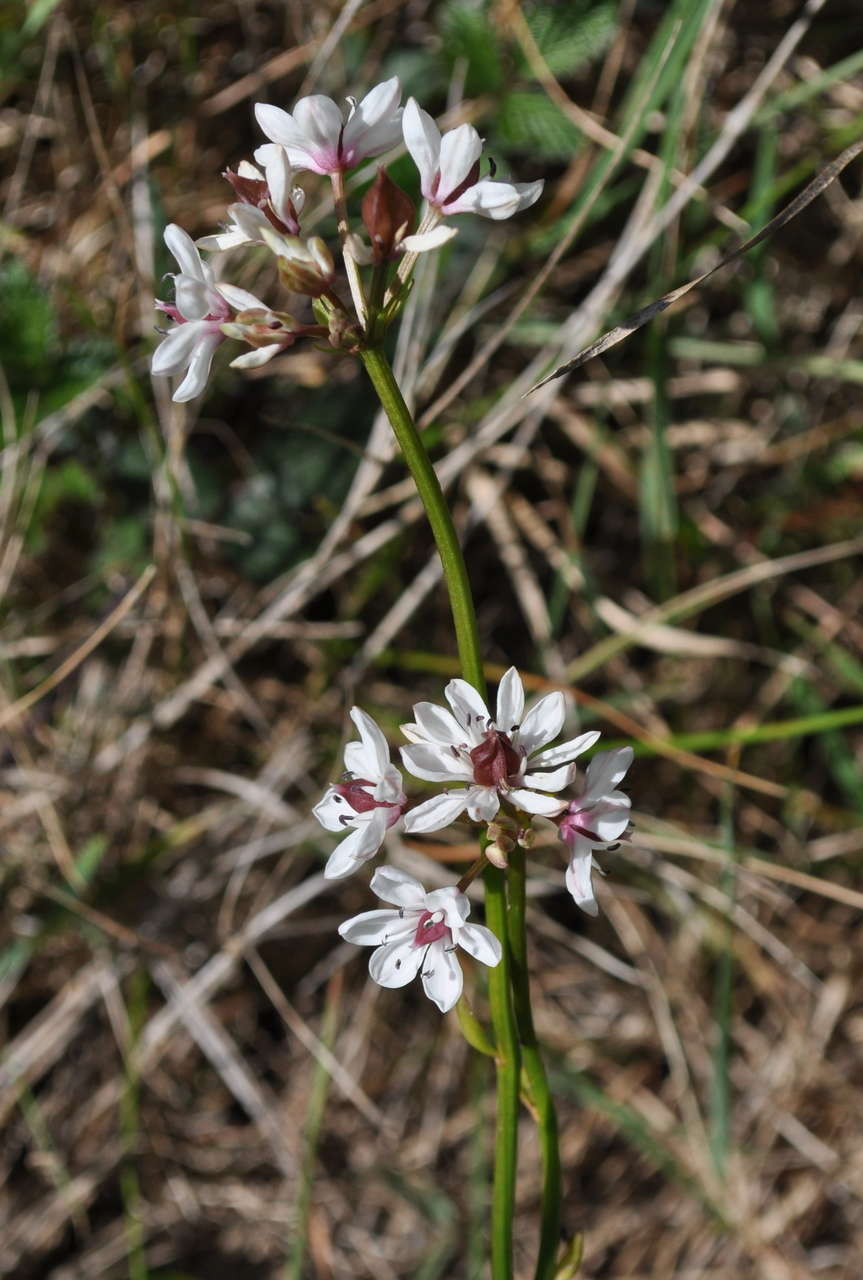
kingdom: Plantae
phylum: Tracheophyta
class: Liliopsida
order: Liliales
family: Colchicaceae
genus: Burchardia
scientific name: Burchardia umbellata
